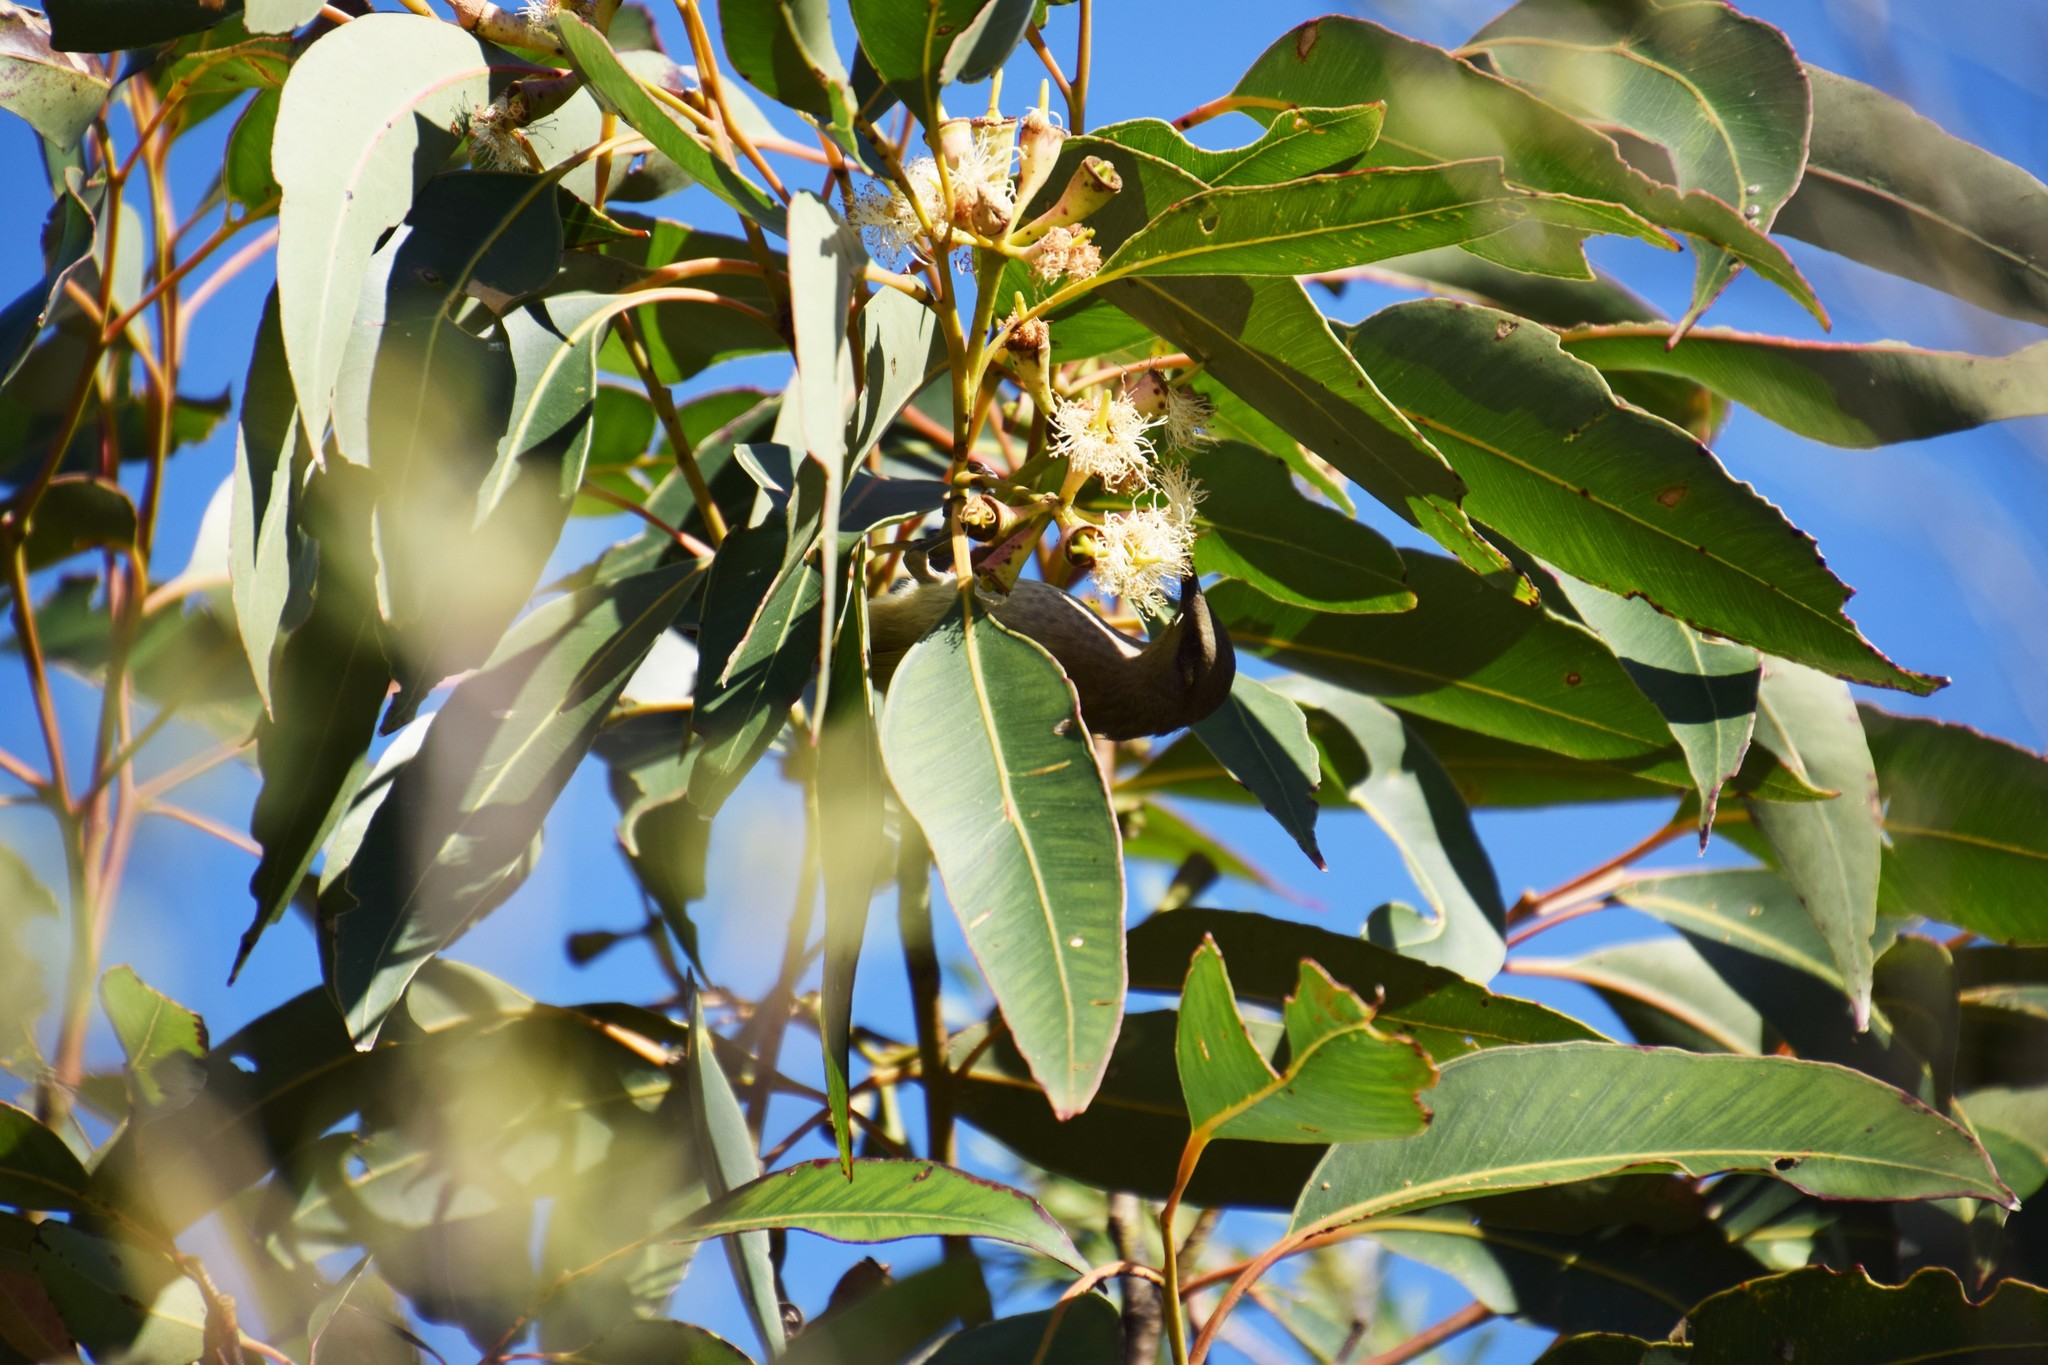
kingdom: Animalia
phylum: Chordata
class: Aves
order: Passeriformes
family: Meliphagidae
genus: Lichmera
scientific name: Lichmera indistincta
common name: Brown honeyeater
